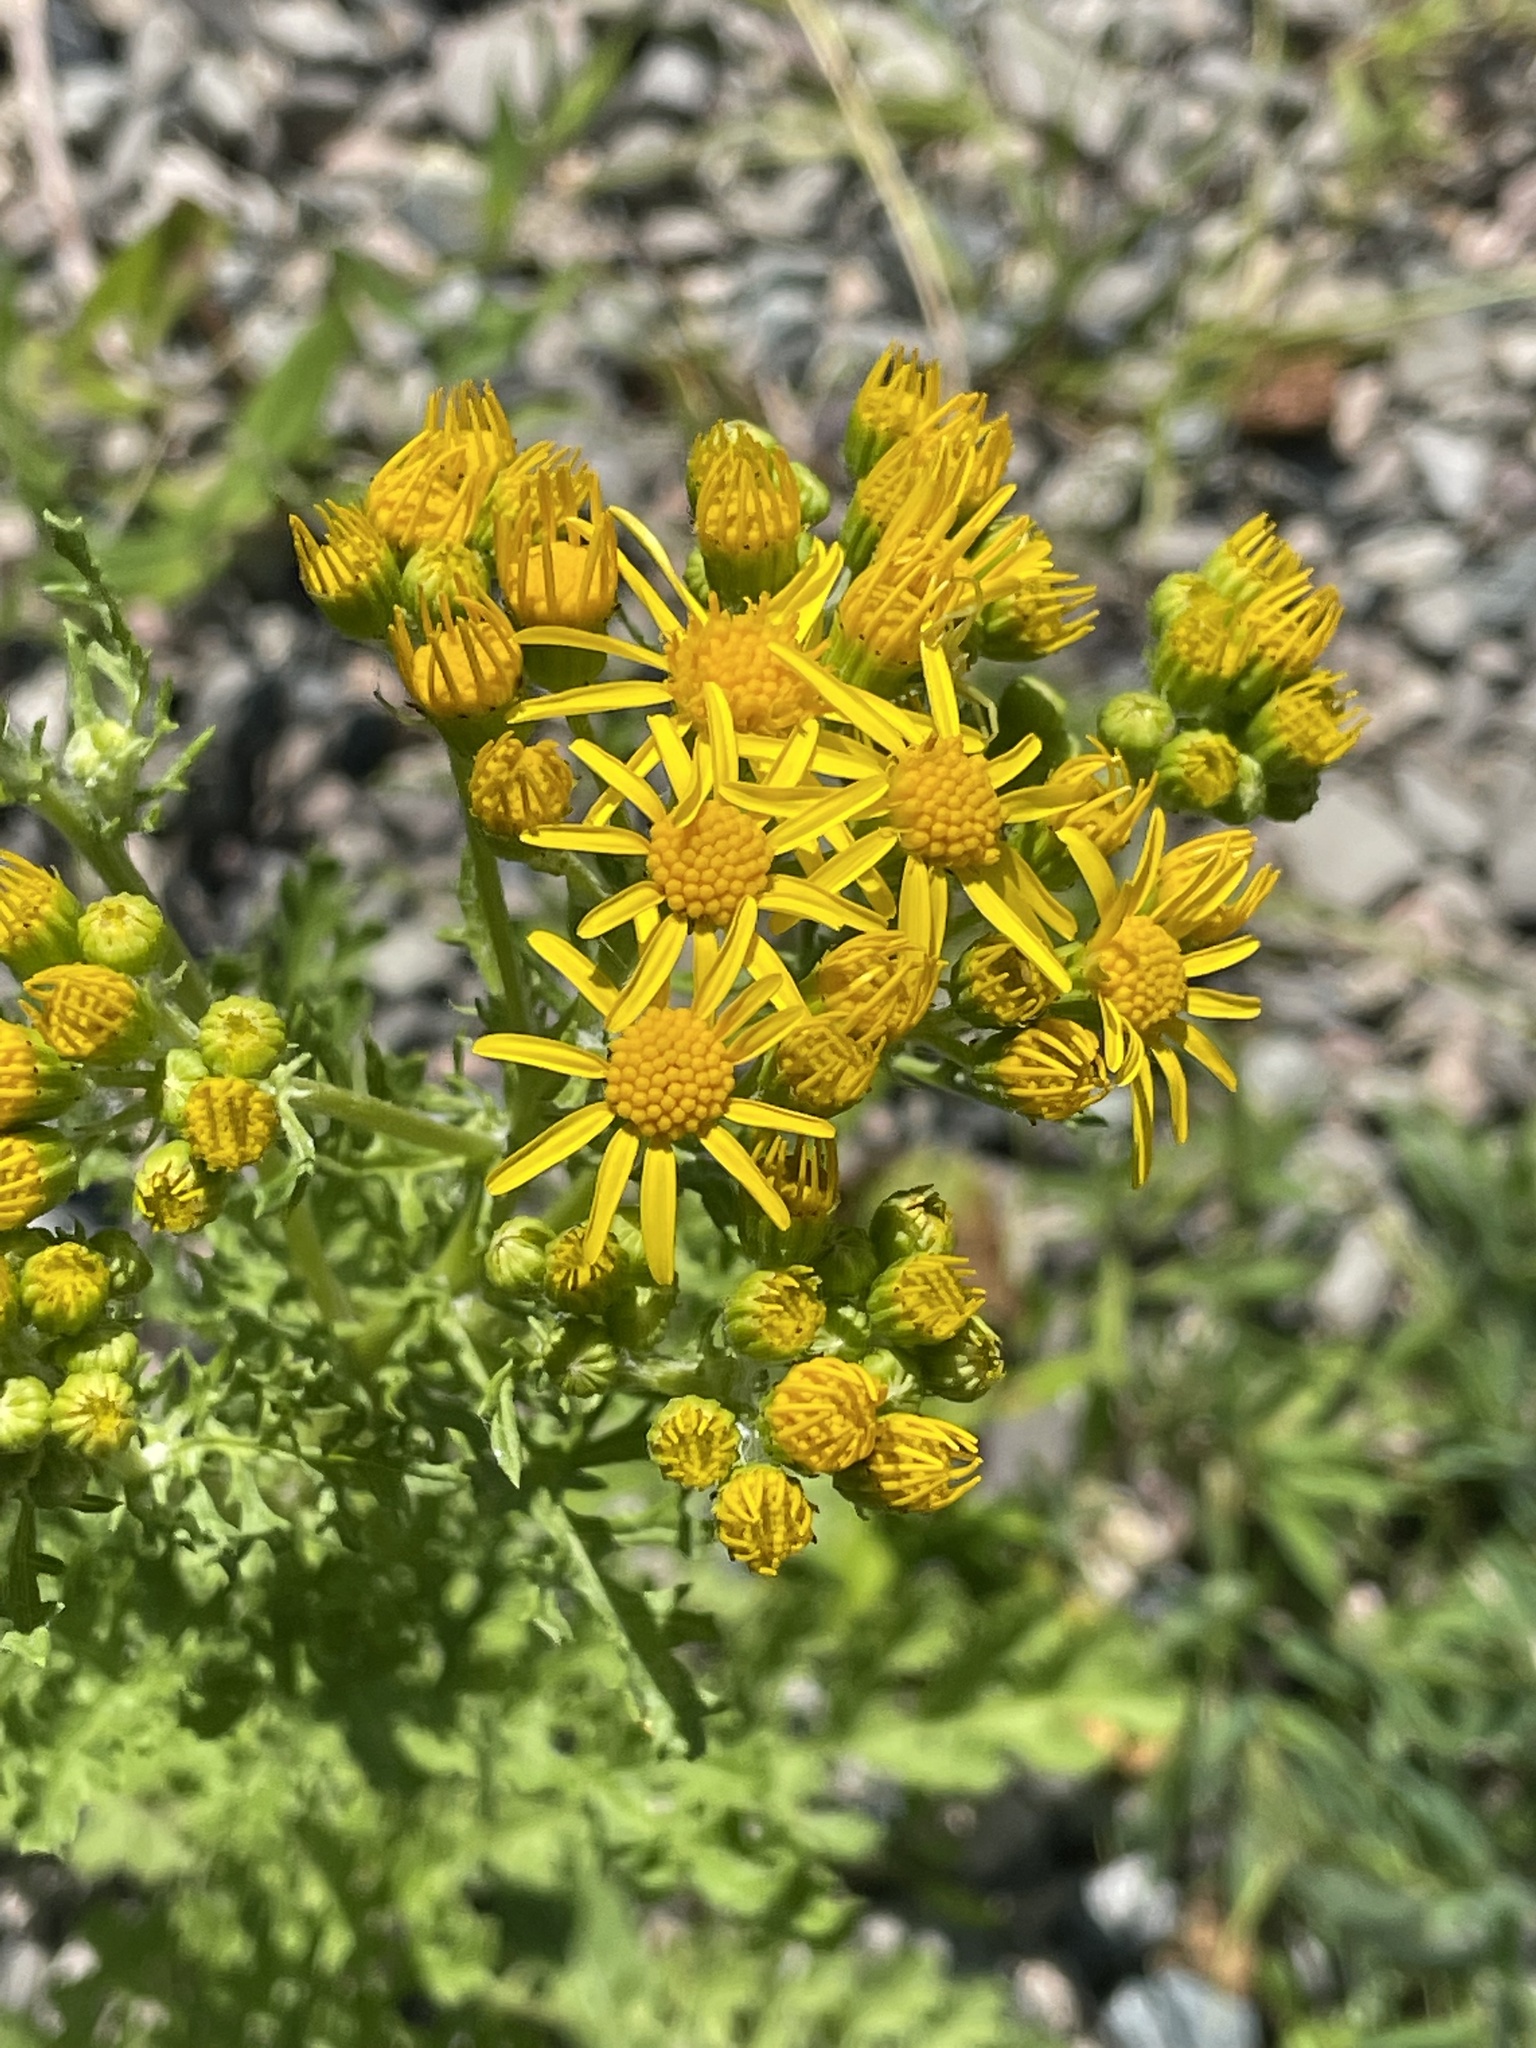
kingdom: Plantae
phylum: Tracheophyta
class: Magnoliopsida
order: Asterales
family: Asteraceae
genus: Jacobaea
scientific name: Jacobaea vulgaris
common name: Stinking willie
